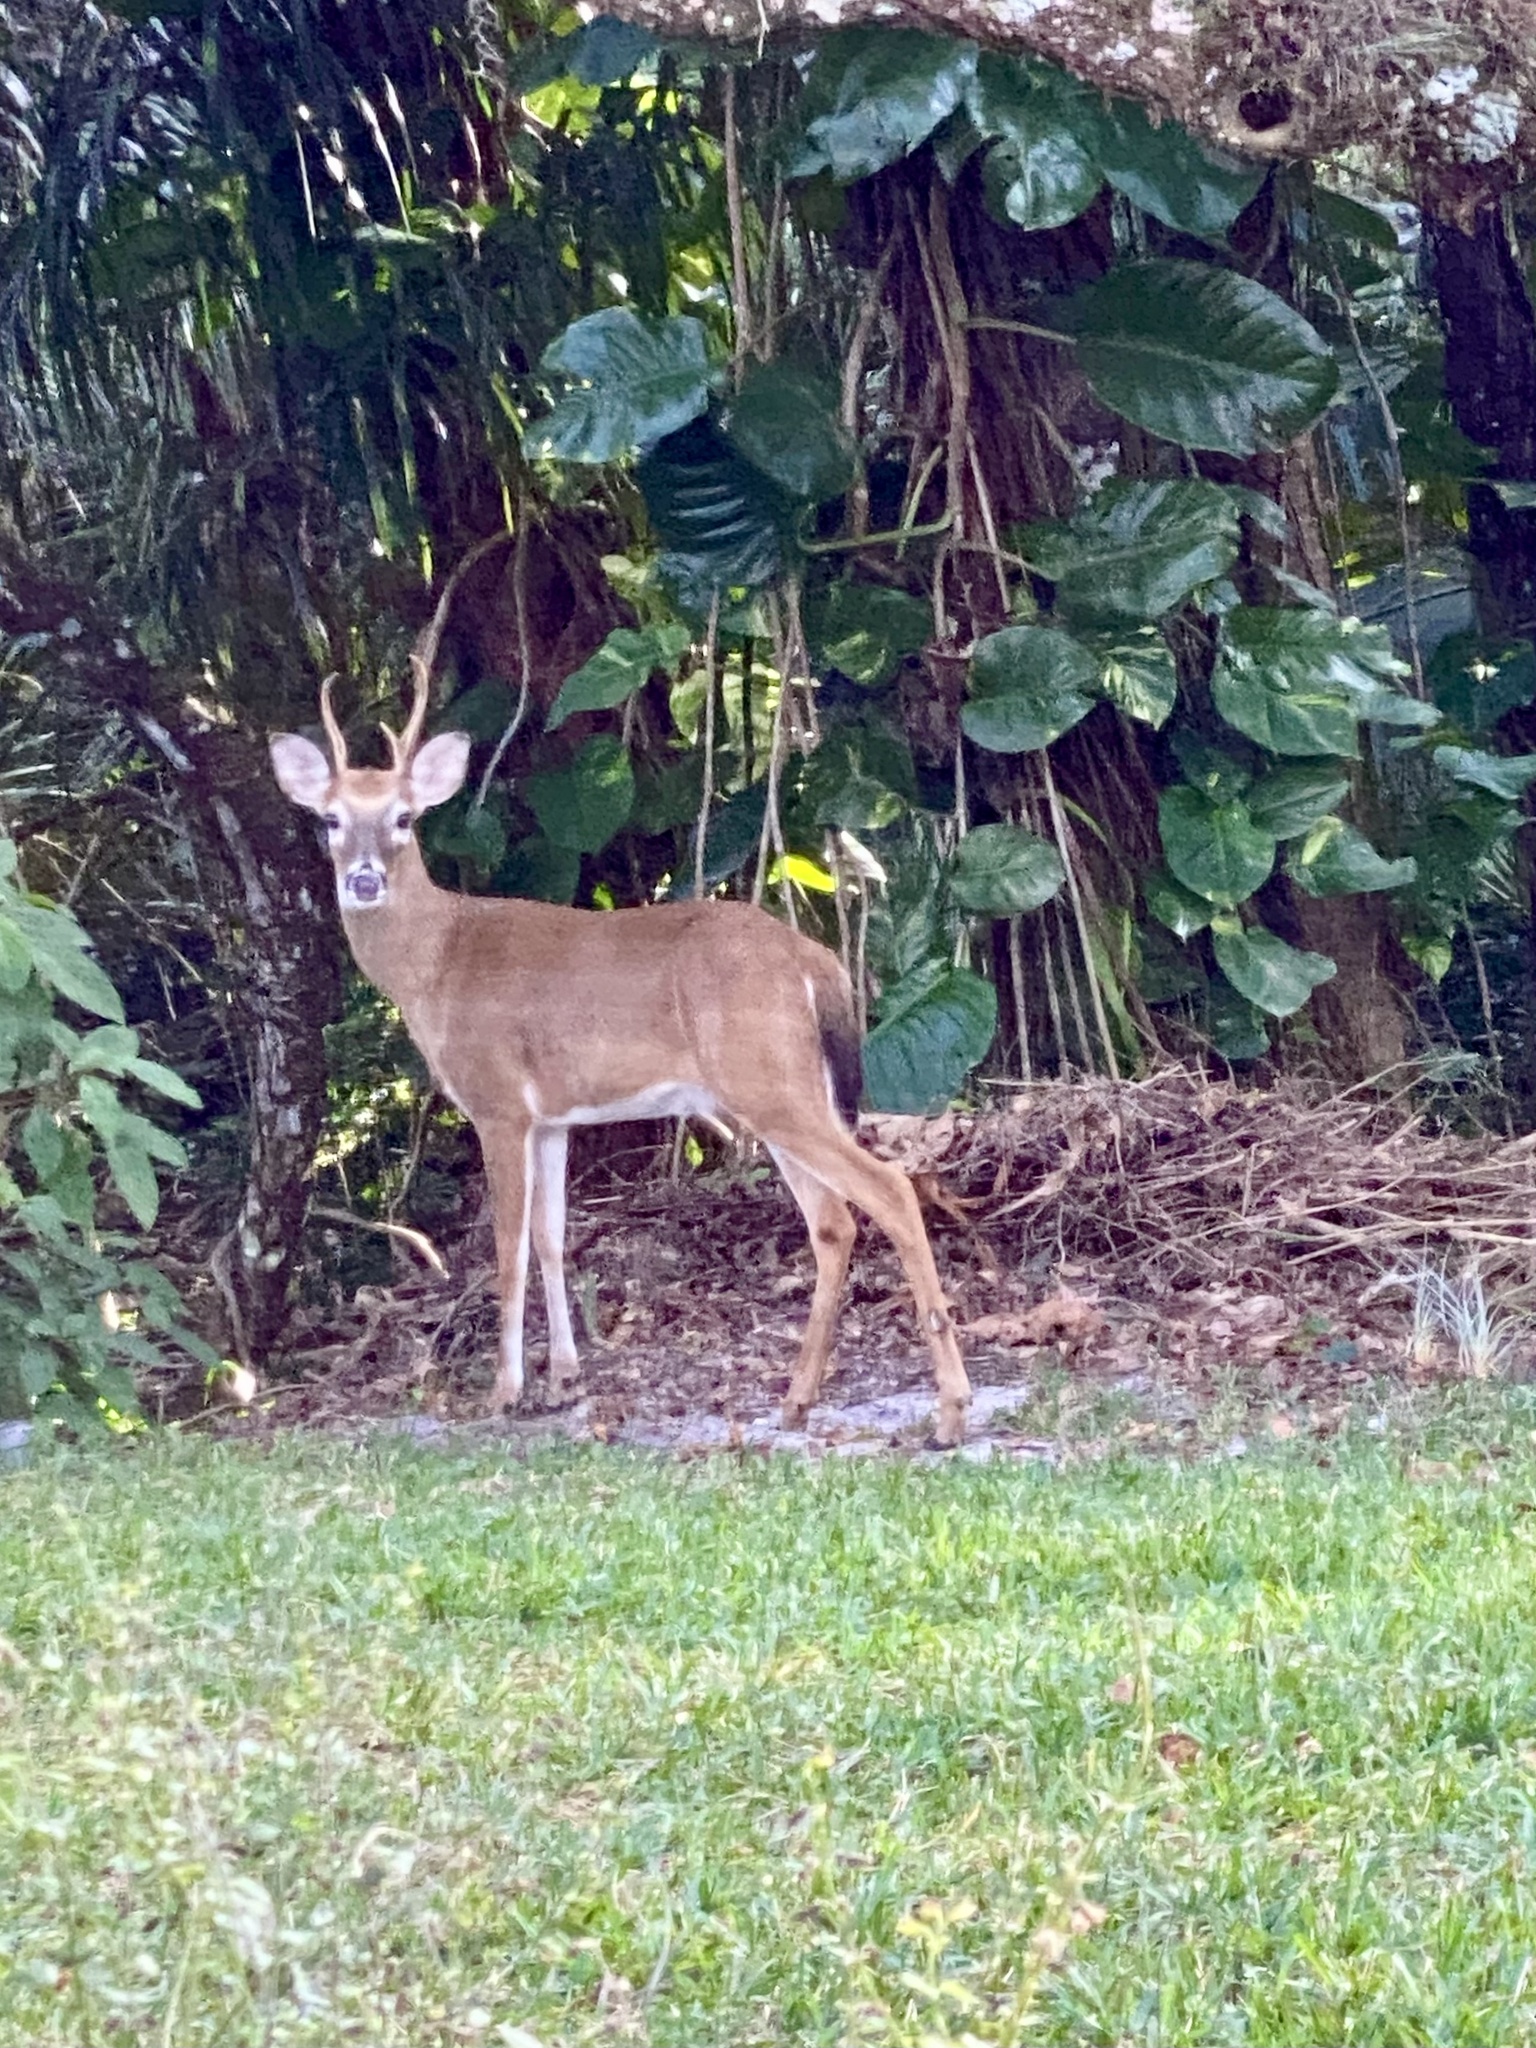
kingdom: Animalia
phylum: Chordata
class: Mammalia
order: Artiodactyla
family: Cervidae
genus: Odocoileus
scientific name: Odocoileus virginianus
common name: White-tailed deer
